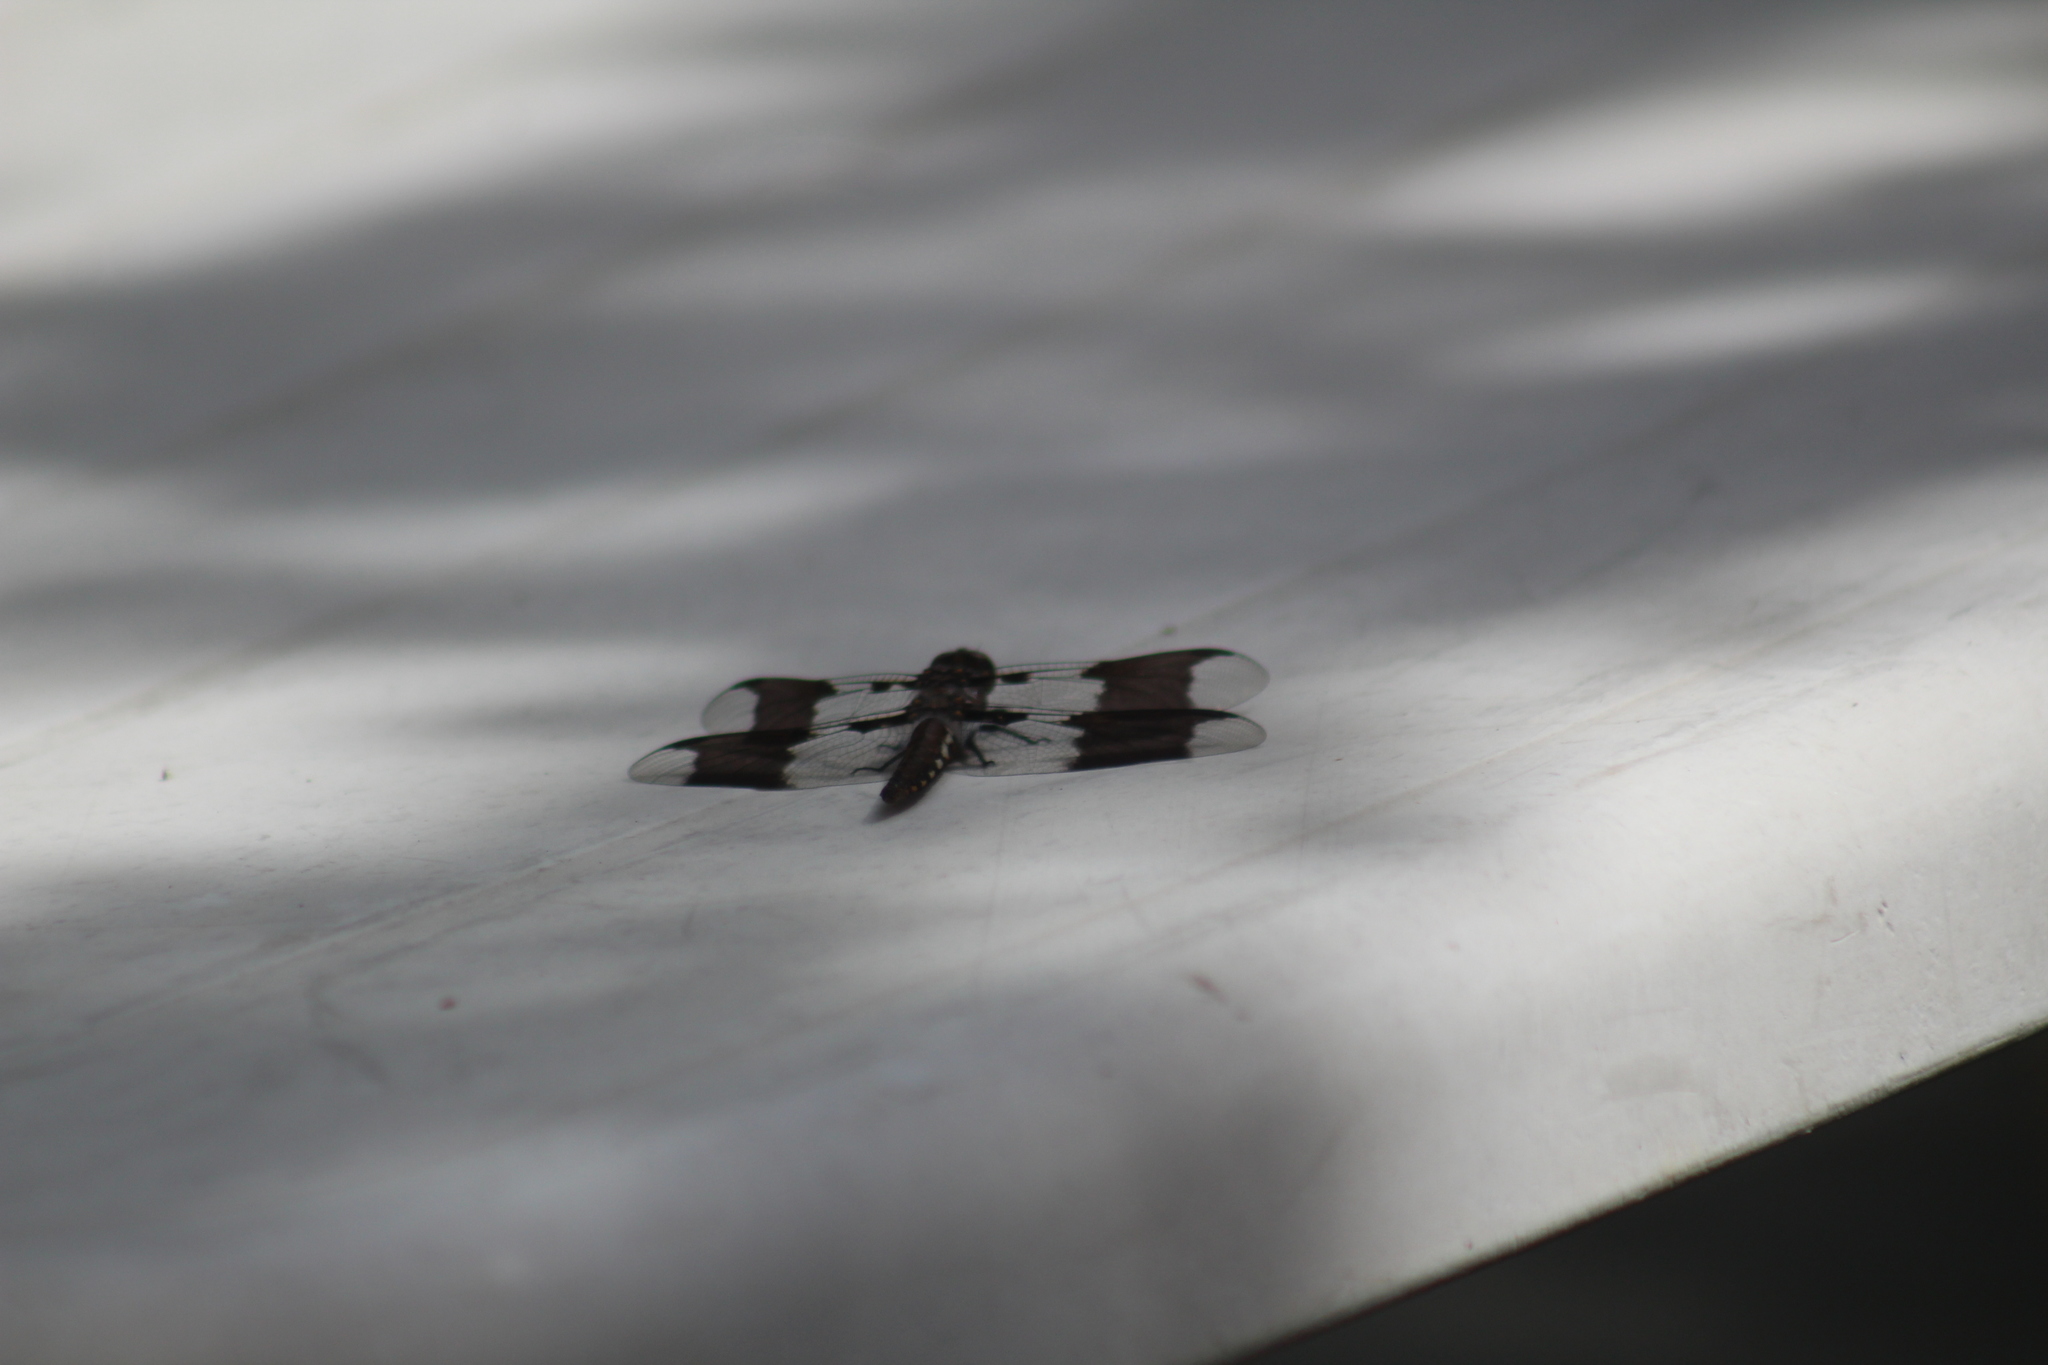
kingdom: Animalia
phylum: Arthropoda
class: Insecta
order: Odonata
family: Libellulidae
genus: Plathemis
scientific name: Plathemis lydia
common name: Common whitetail
